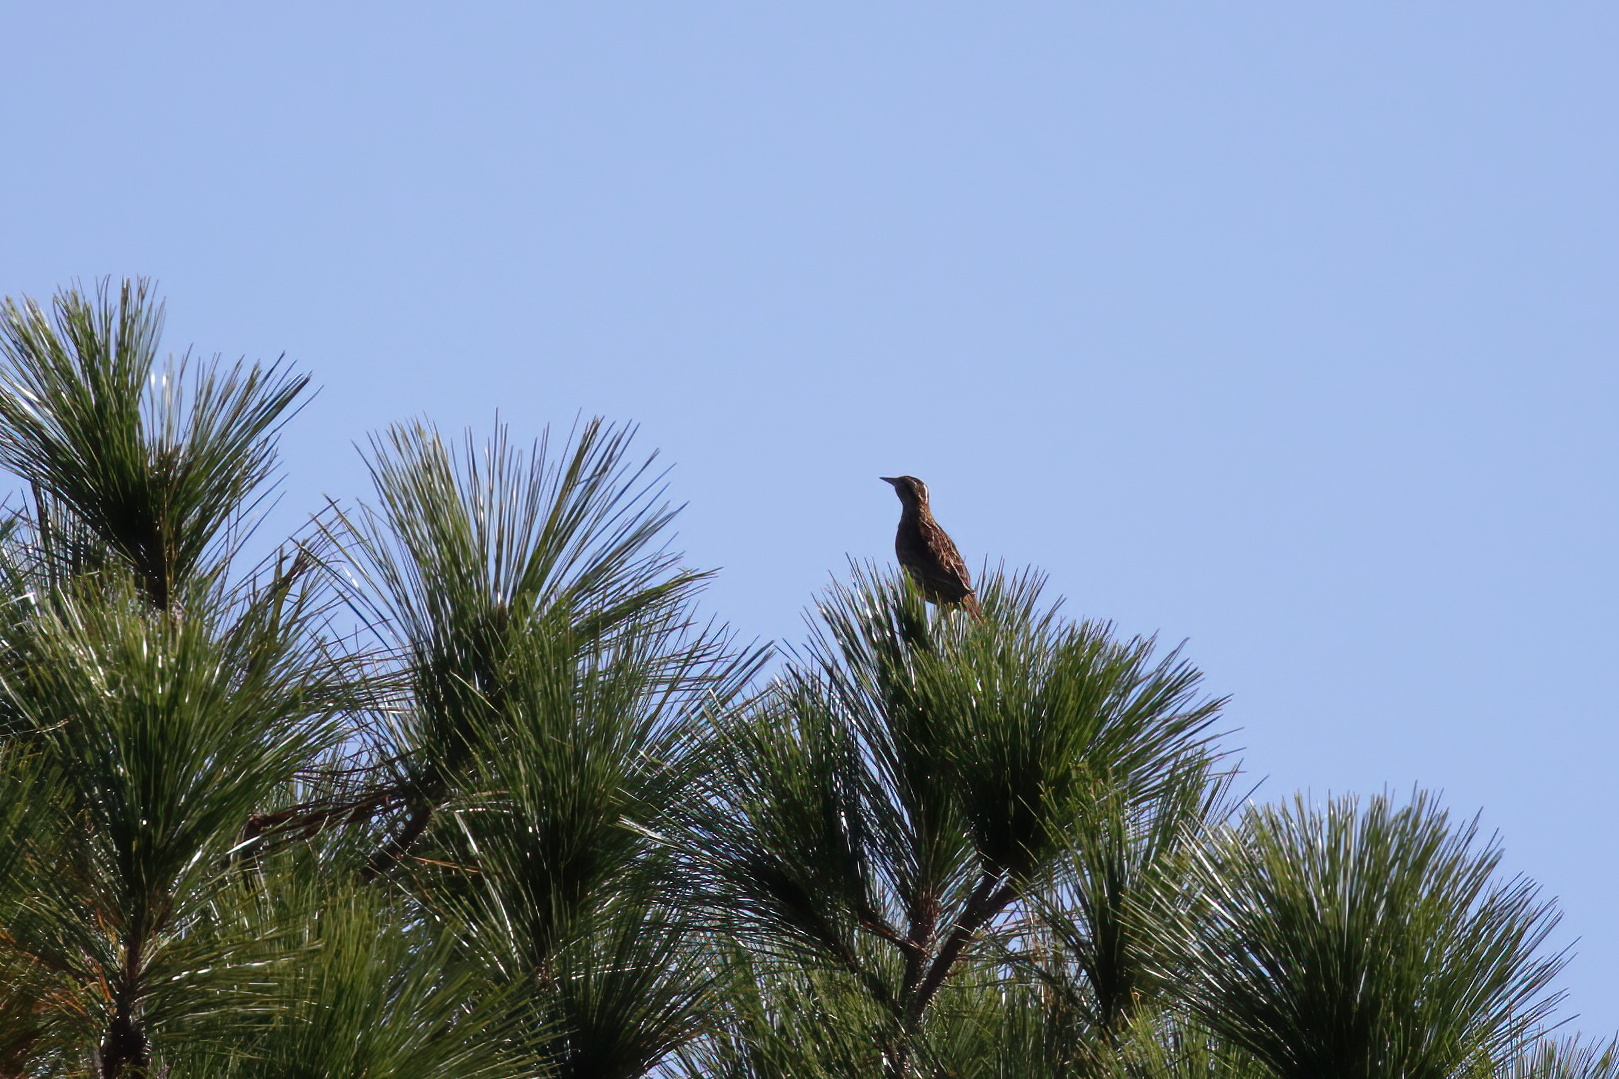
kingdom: Animalia
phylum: Chordata
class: Aves
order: Passeriformes
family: Icteridae
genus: Sturnella
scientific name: Sturnella magna
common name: Eastern meadowlark
